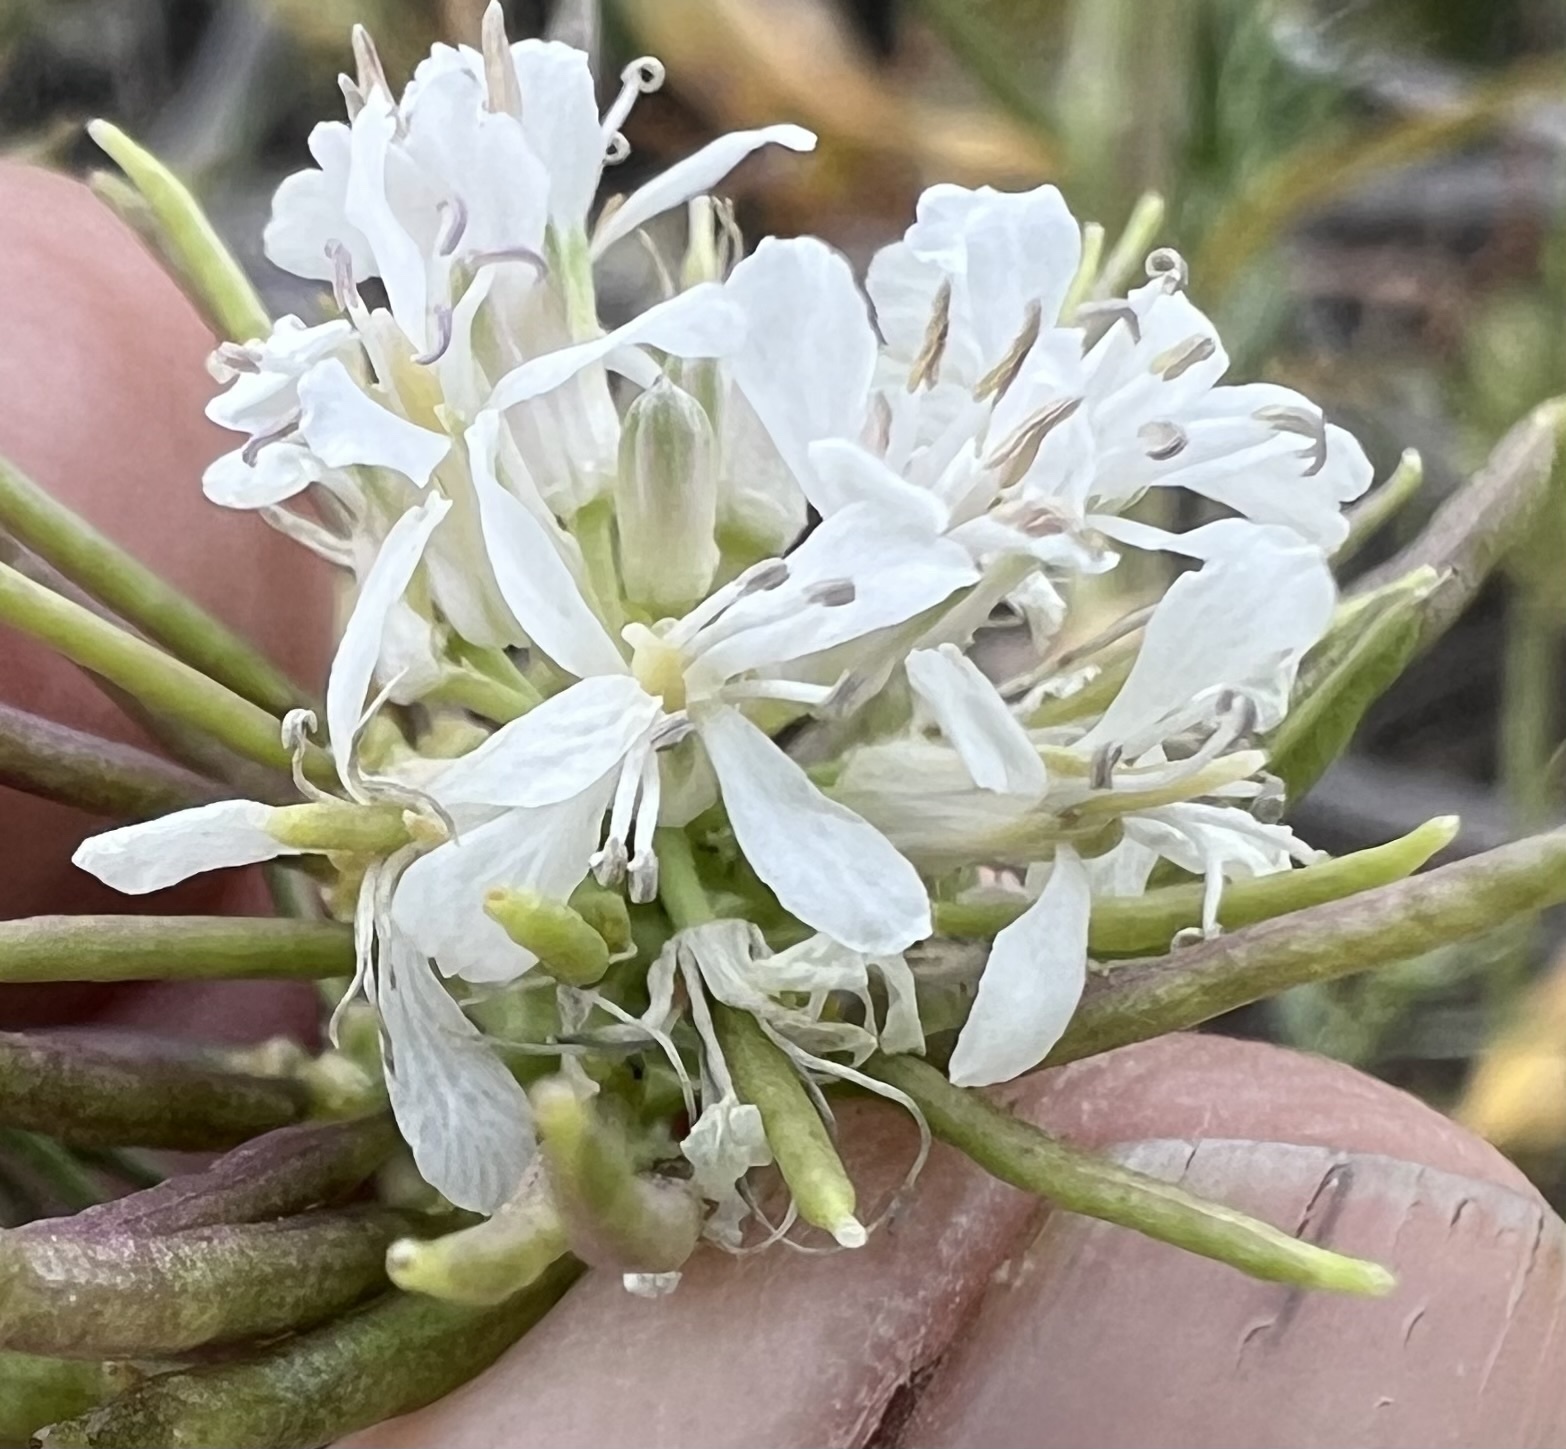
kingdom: Plantae
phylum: Tracheophyta
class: Magnoliopsida
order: Brassicales
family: Brassicaceae
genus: Thelypodium
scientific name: Thelypodium integrifolium
